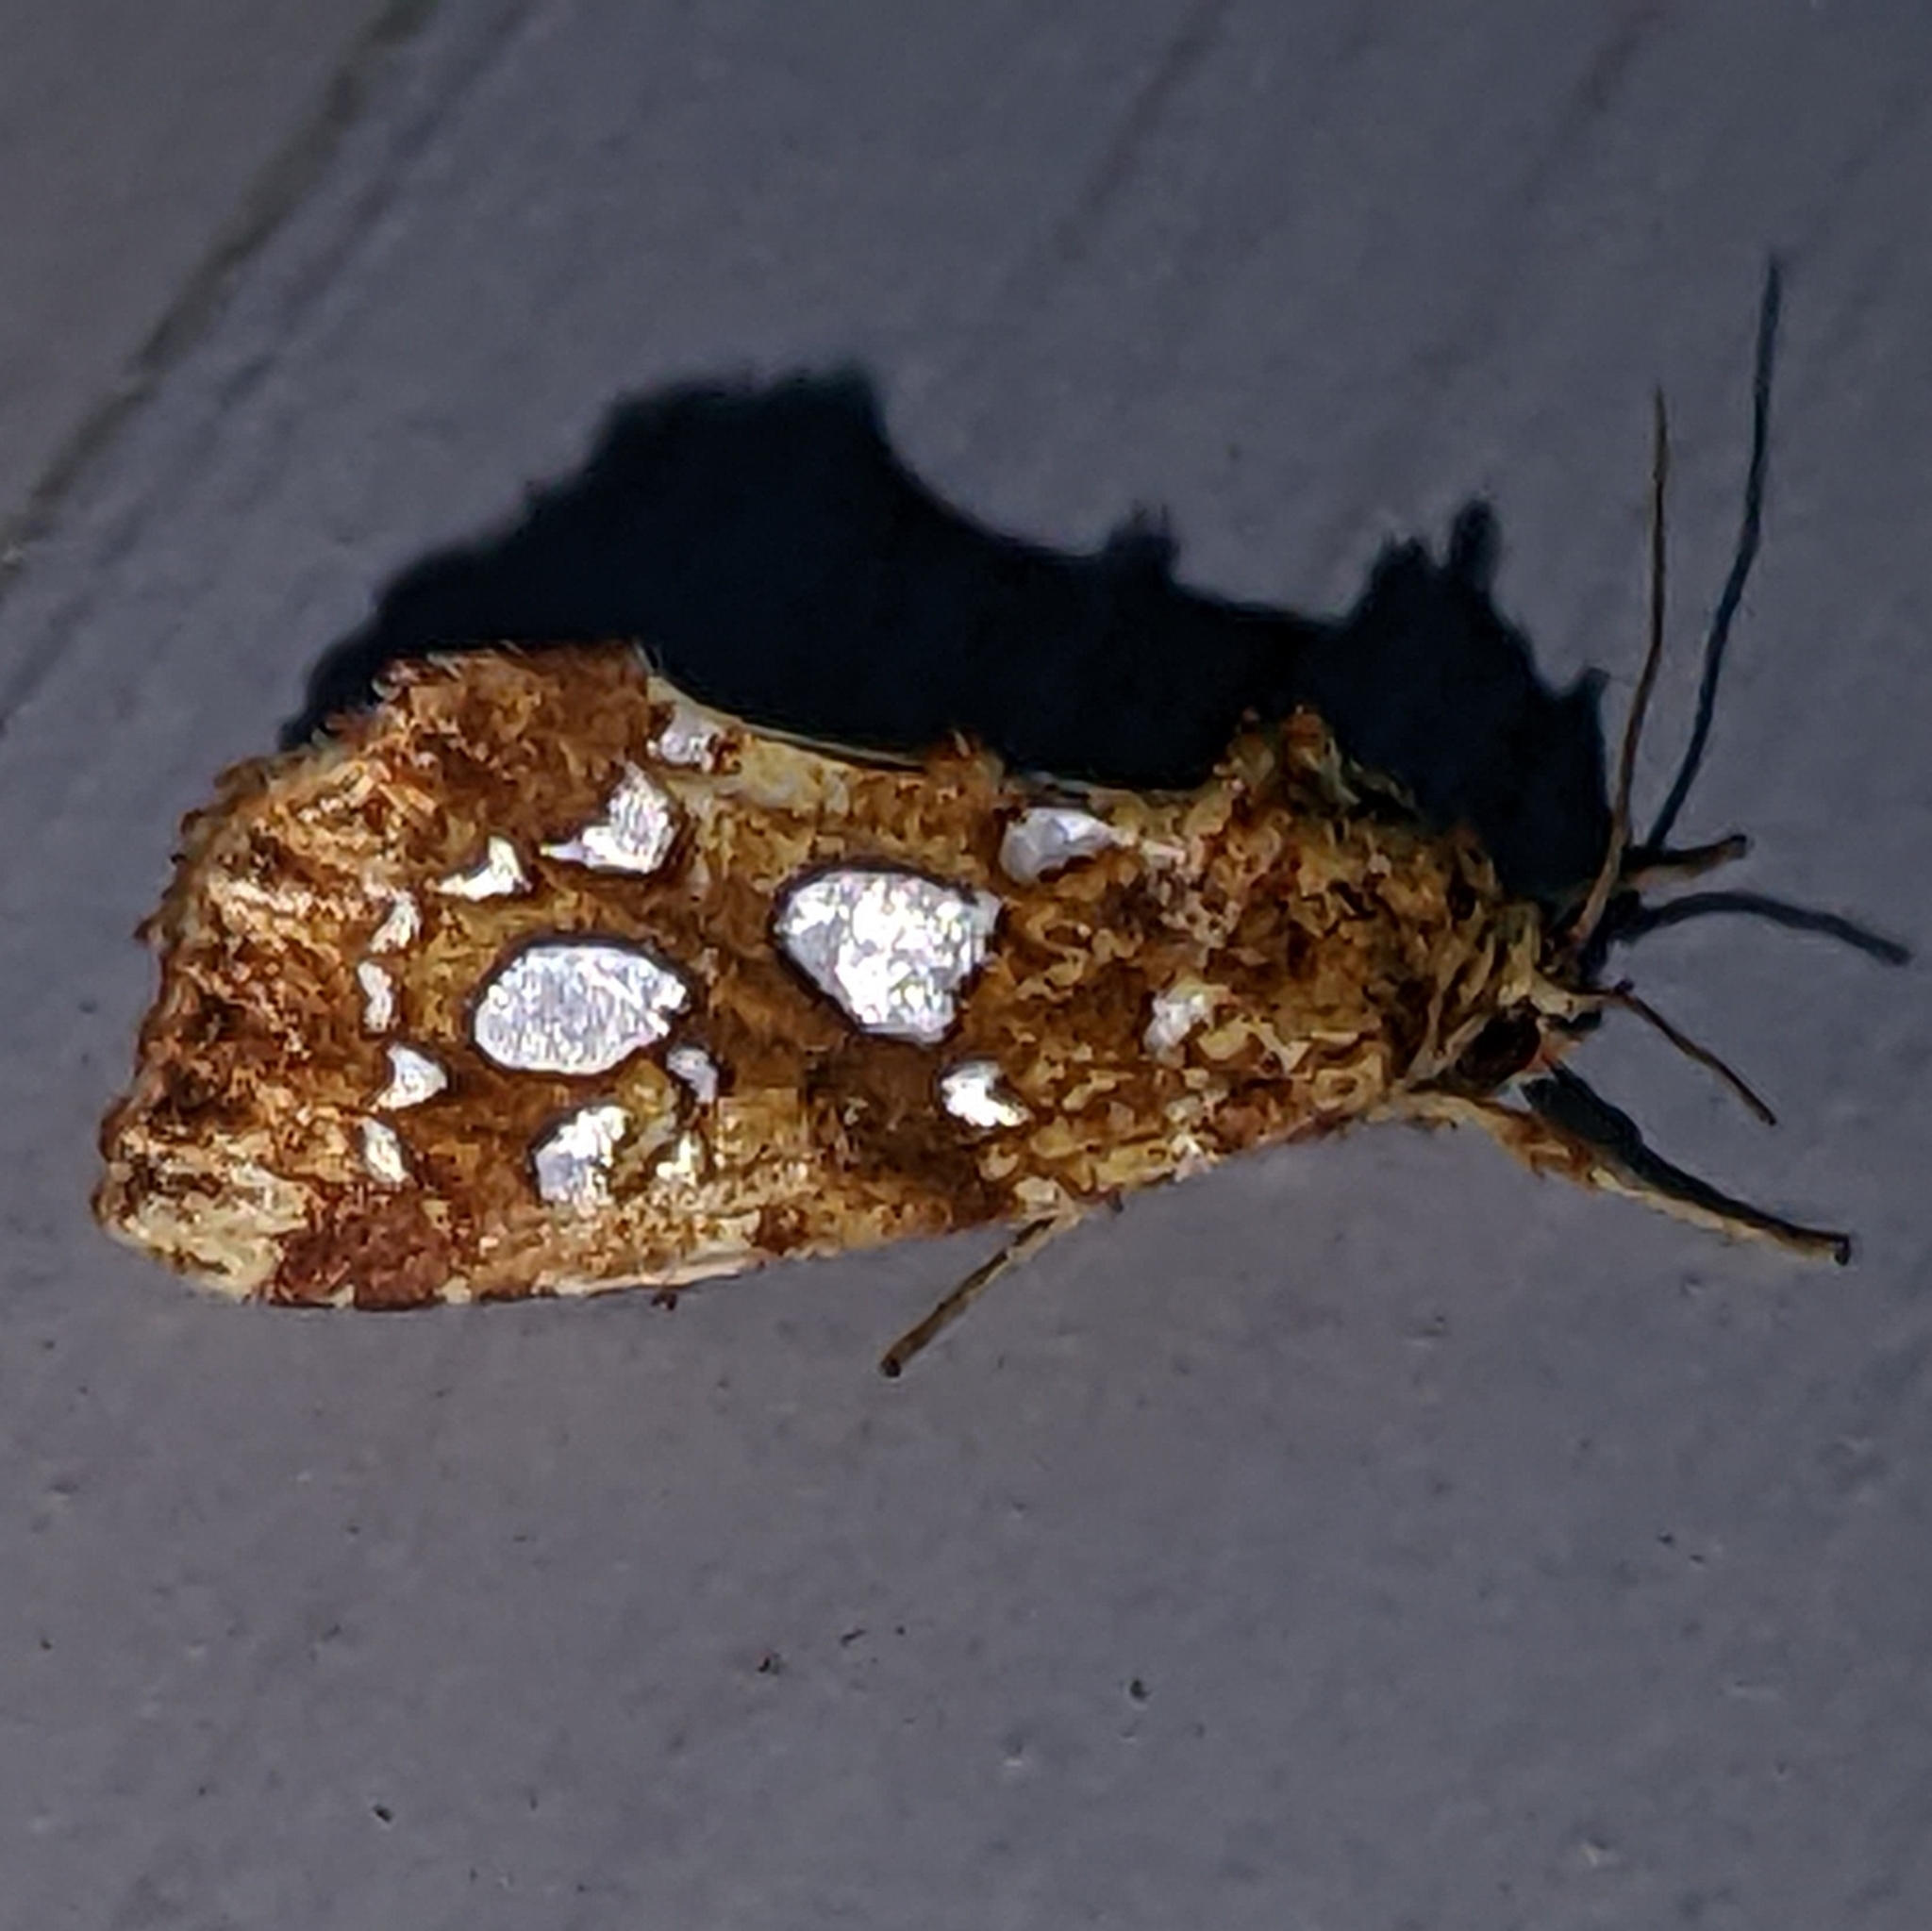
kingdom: Animalia
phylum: Arthropoda
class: Insecta
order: Lepidoptera
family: Noctuidae
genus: Callopistria
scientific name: Callopistria cordata
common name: Silver-spotted fern moth
